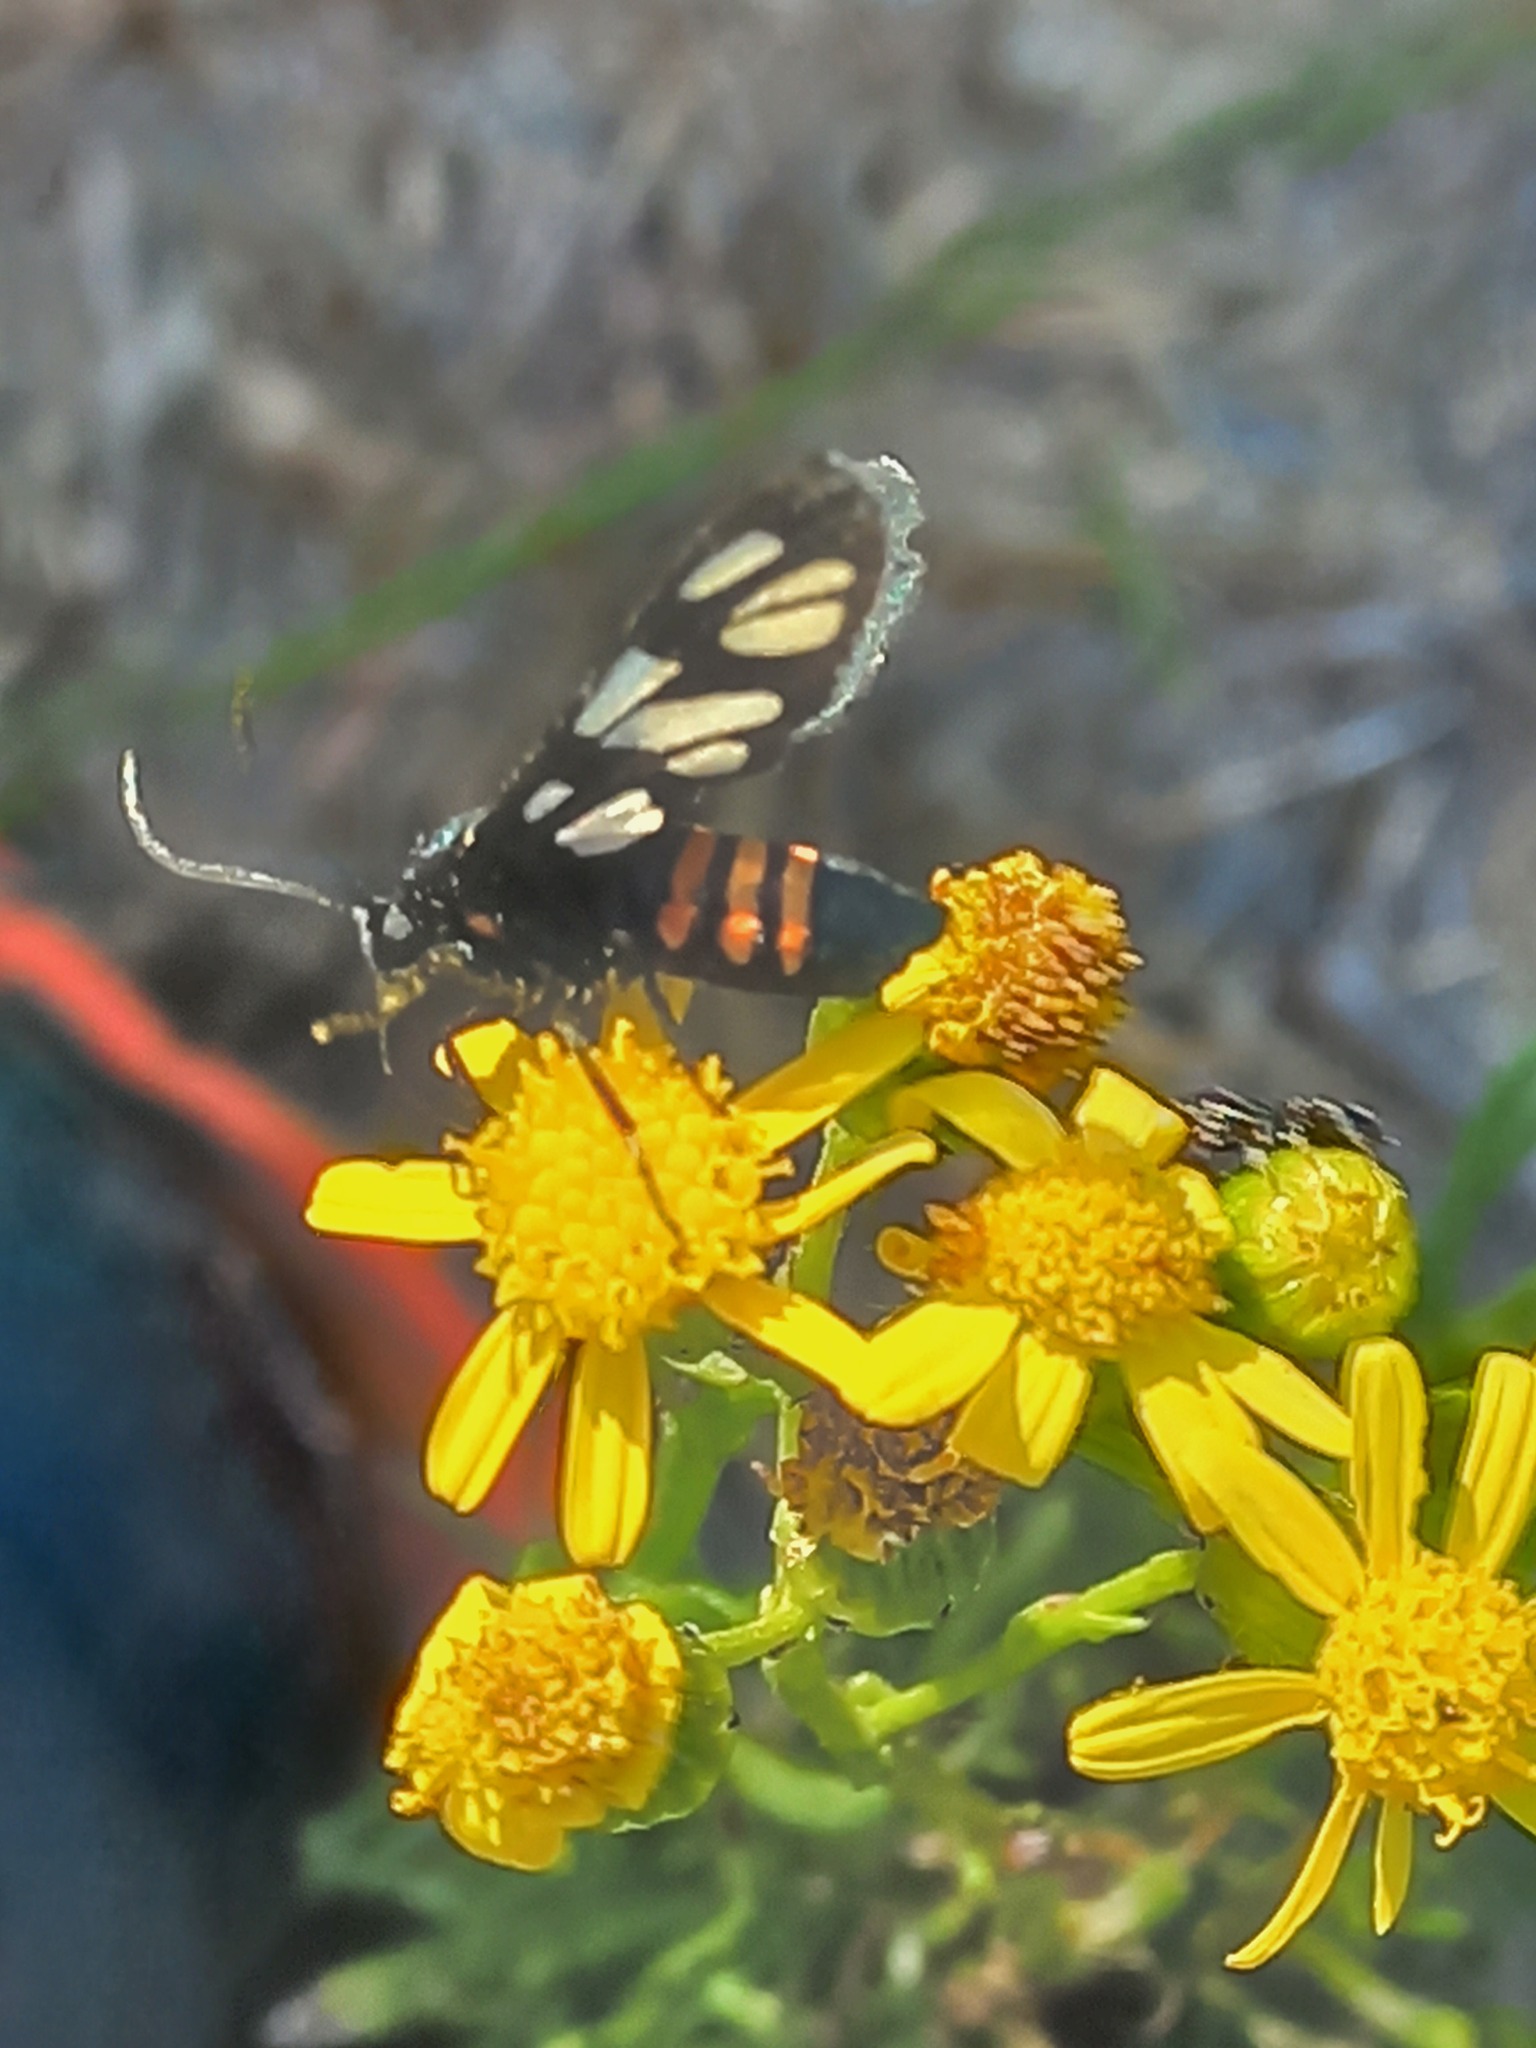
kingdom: Animalia
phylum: Arthropoda
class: Insecta
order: Lepidoptera
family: Erebidae
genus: Amata
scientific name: Amata cerbera
